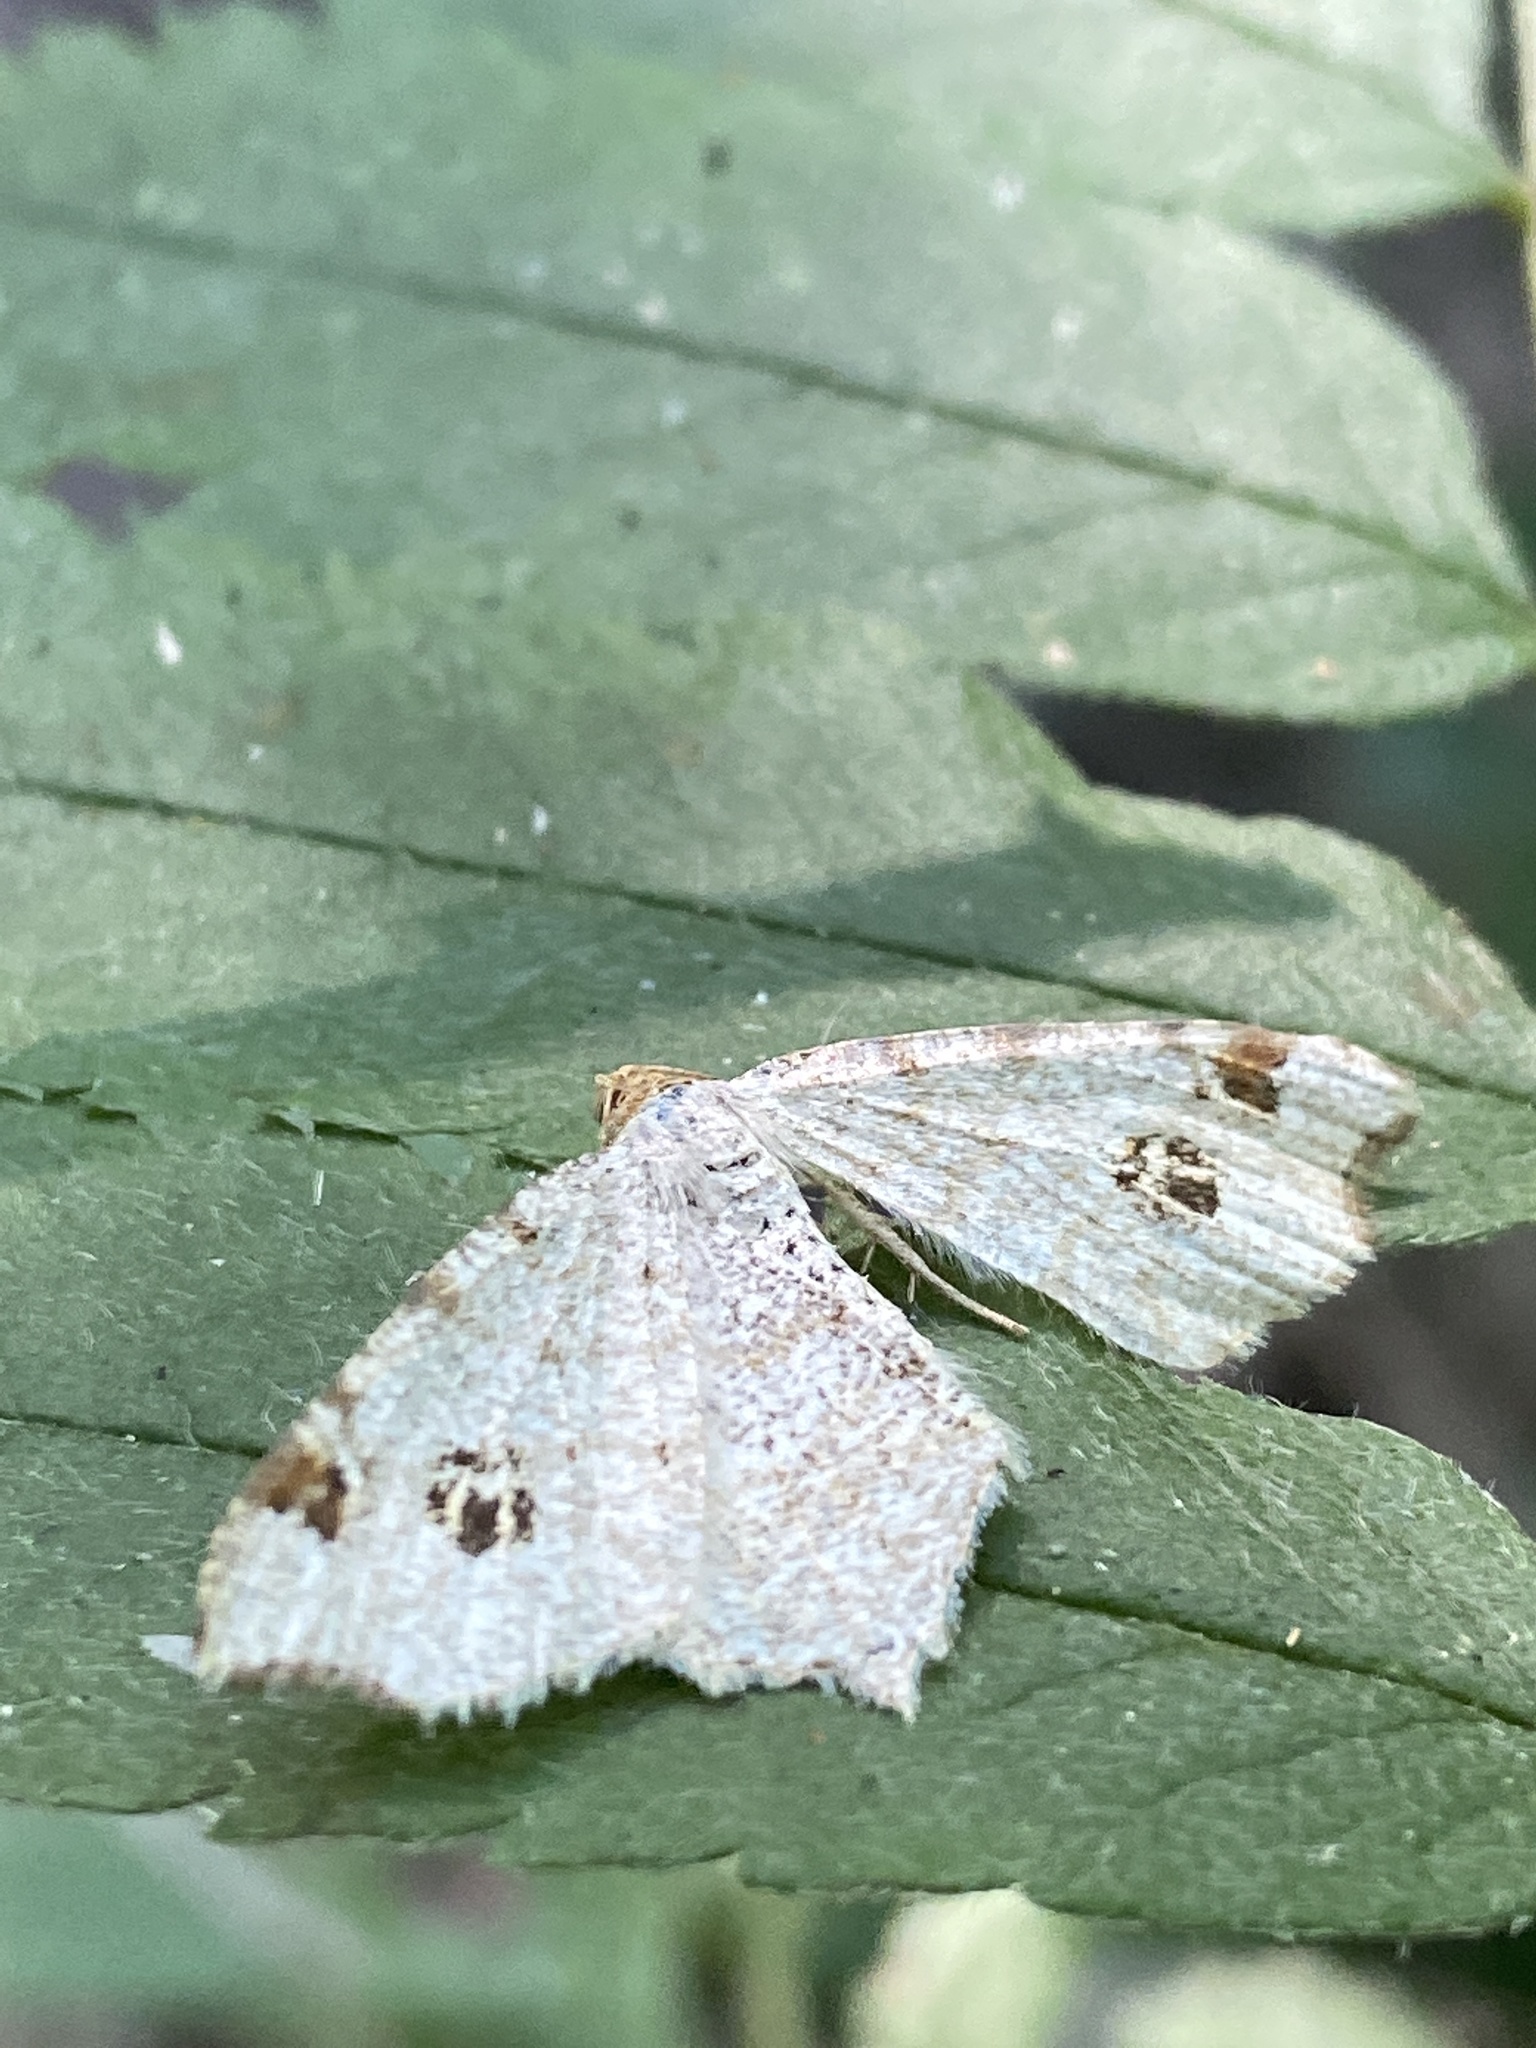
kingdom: Animalia
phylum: Arthropoda
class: Insecta
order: Lepidoptera
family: Geometridae
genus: Macaria
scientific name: Macaria notata
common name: Peacock moth
